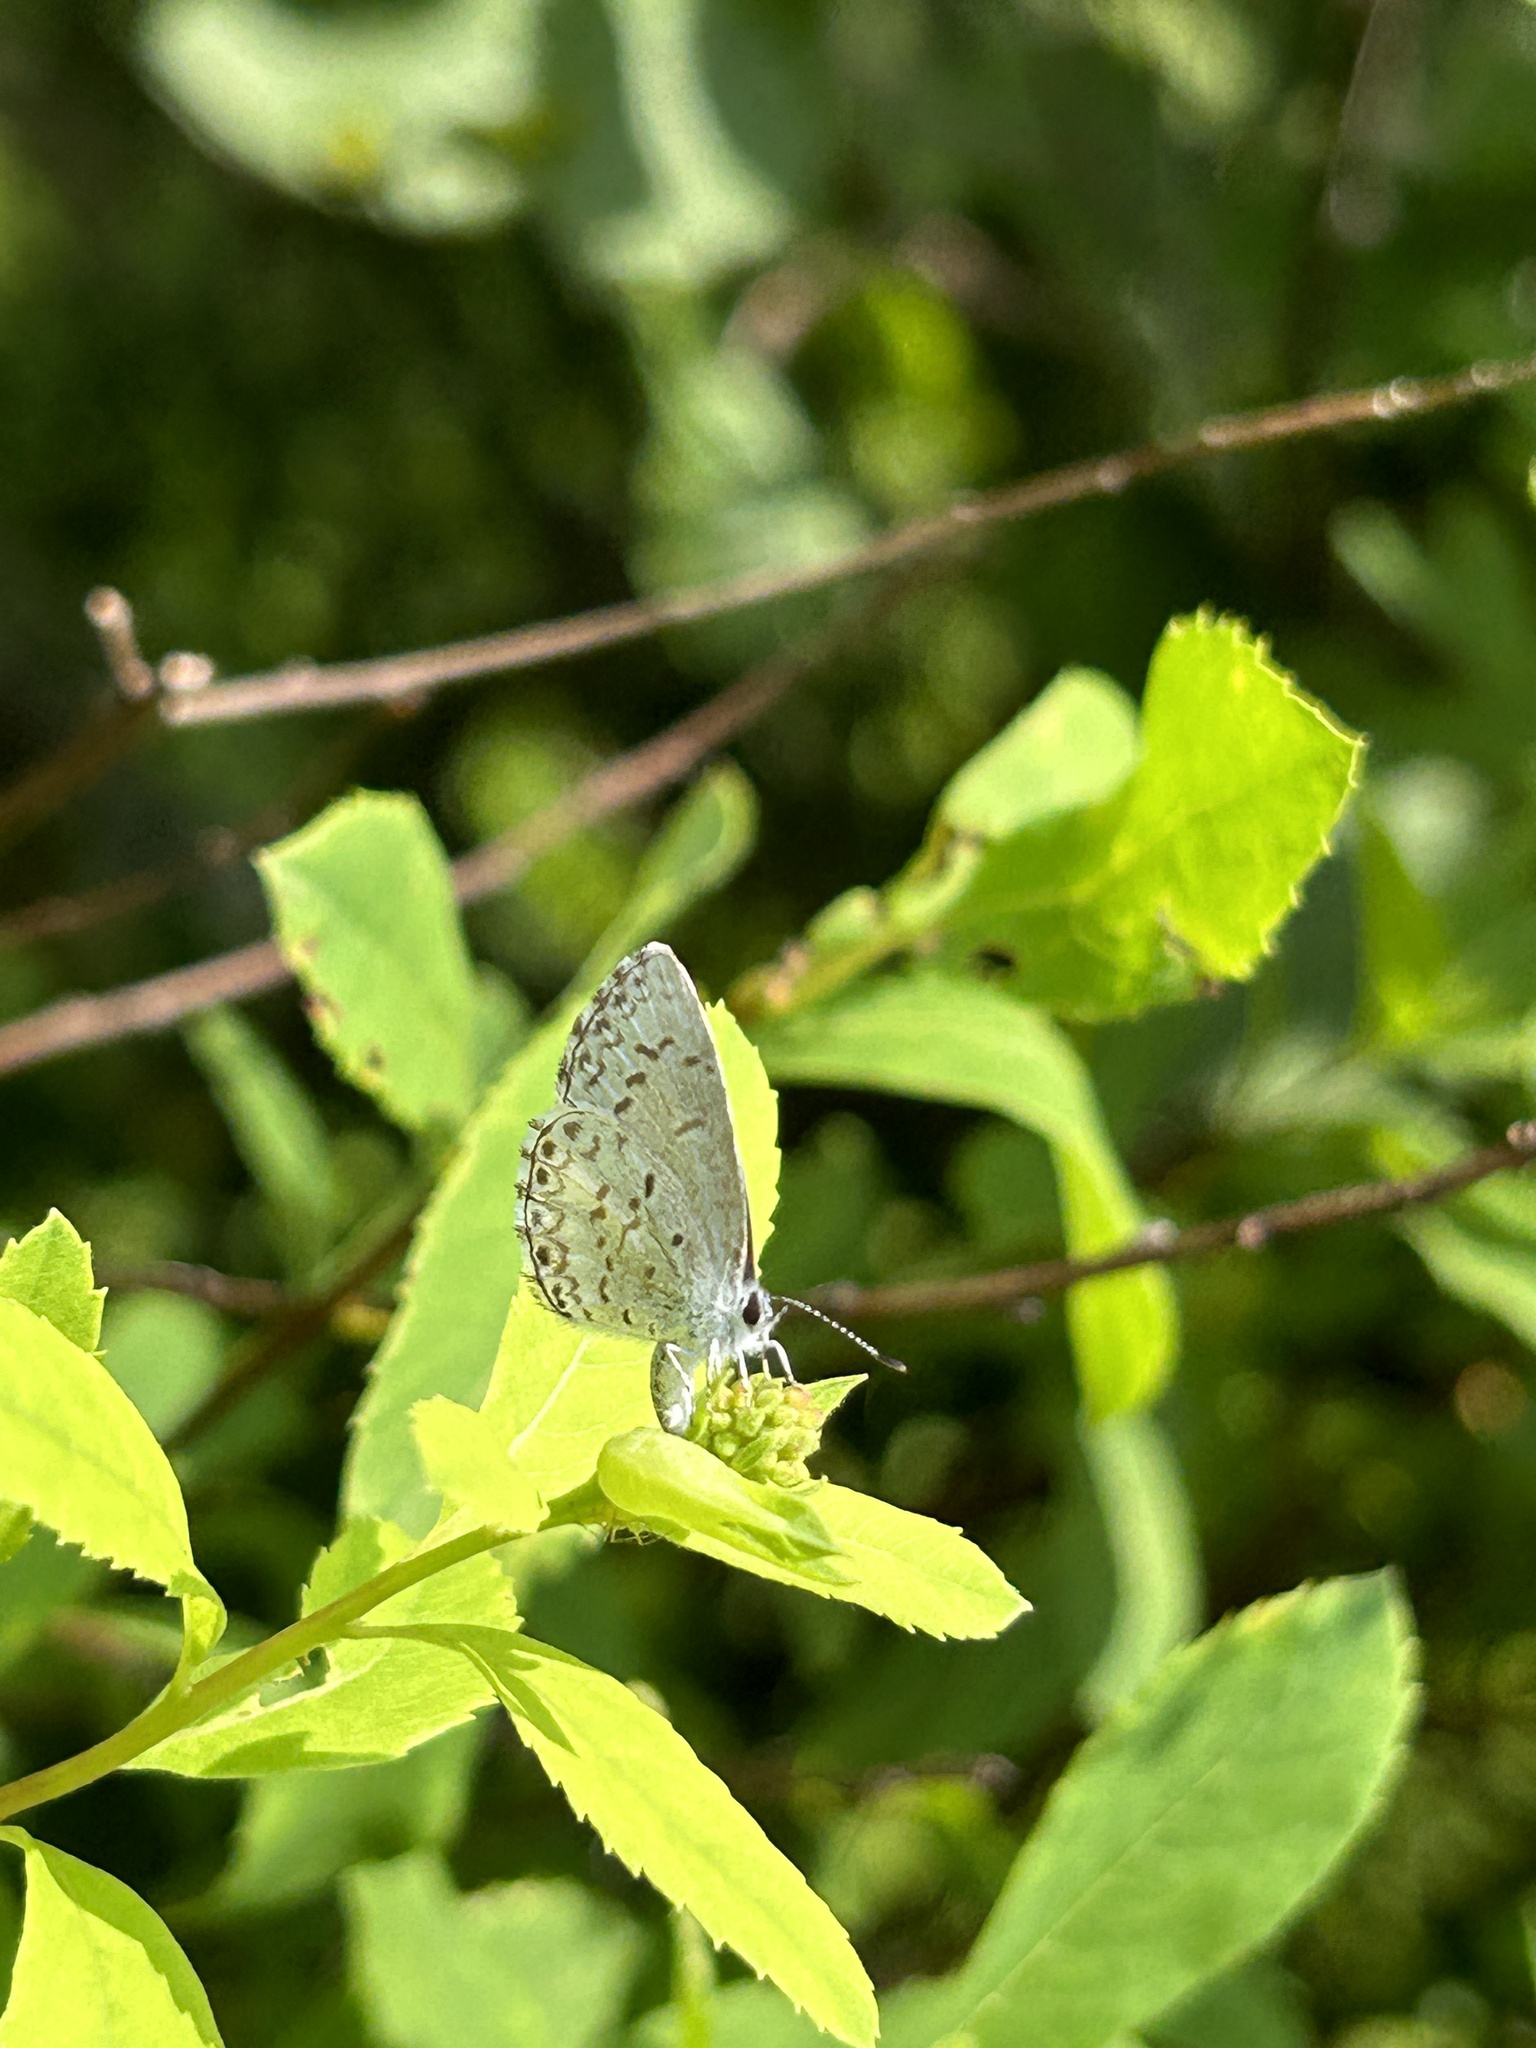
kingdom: Animalia
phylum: Arthropoda
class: Insecta
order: Lepidoptera
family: Lycaenidae
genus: Celastrina
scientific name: Celastrina lucia
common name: Lucia azure
